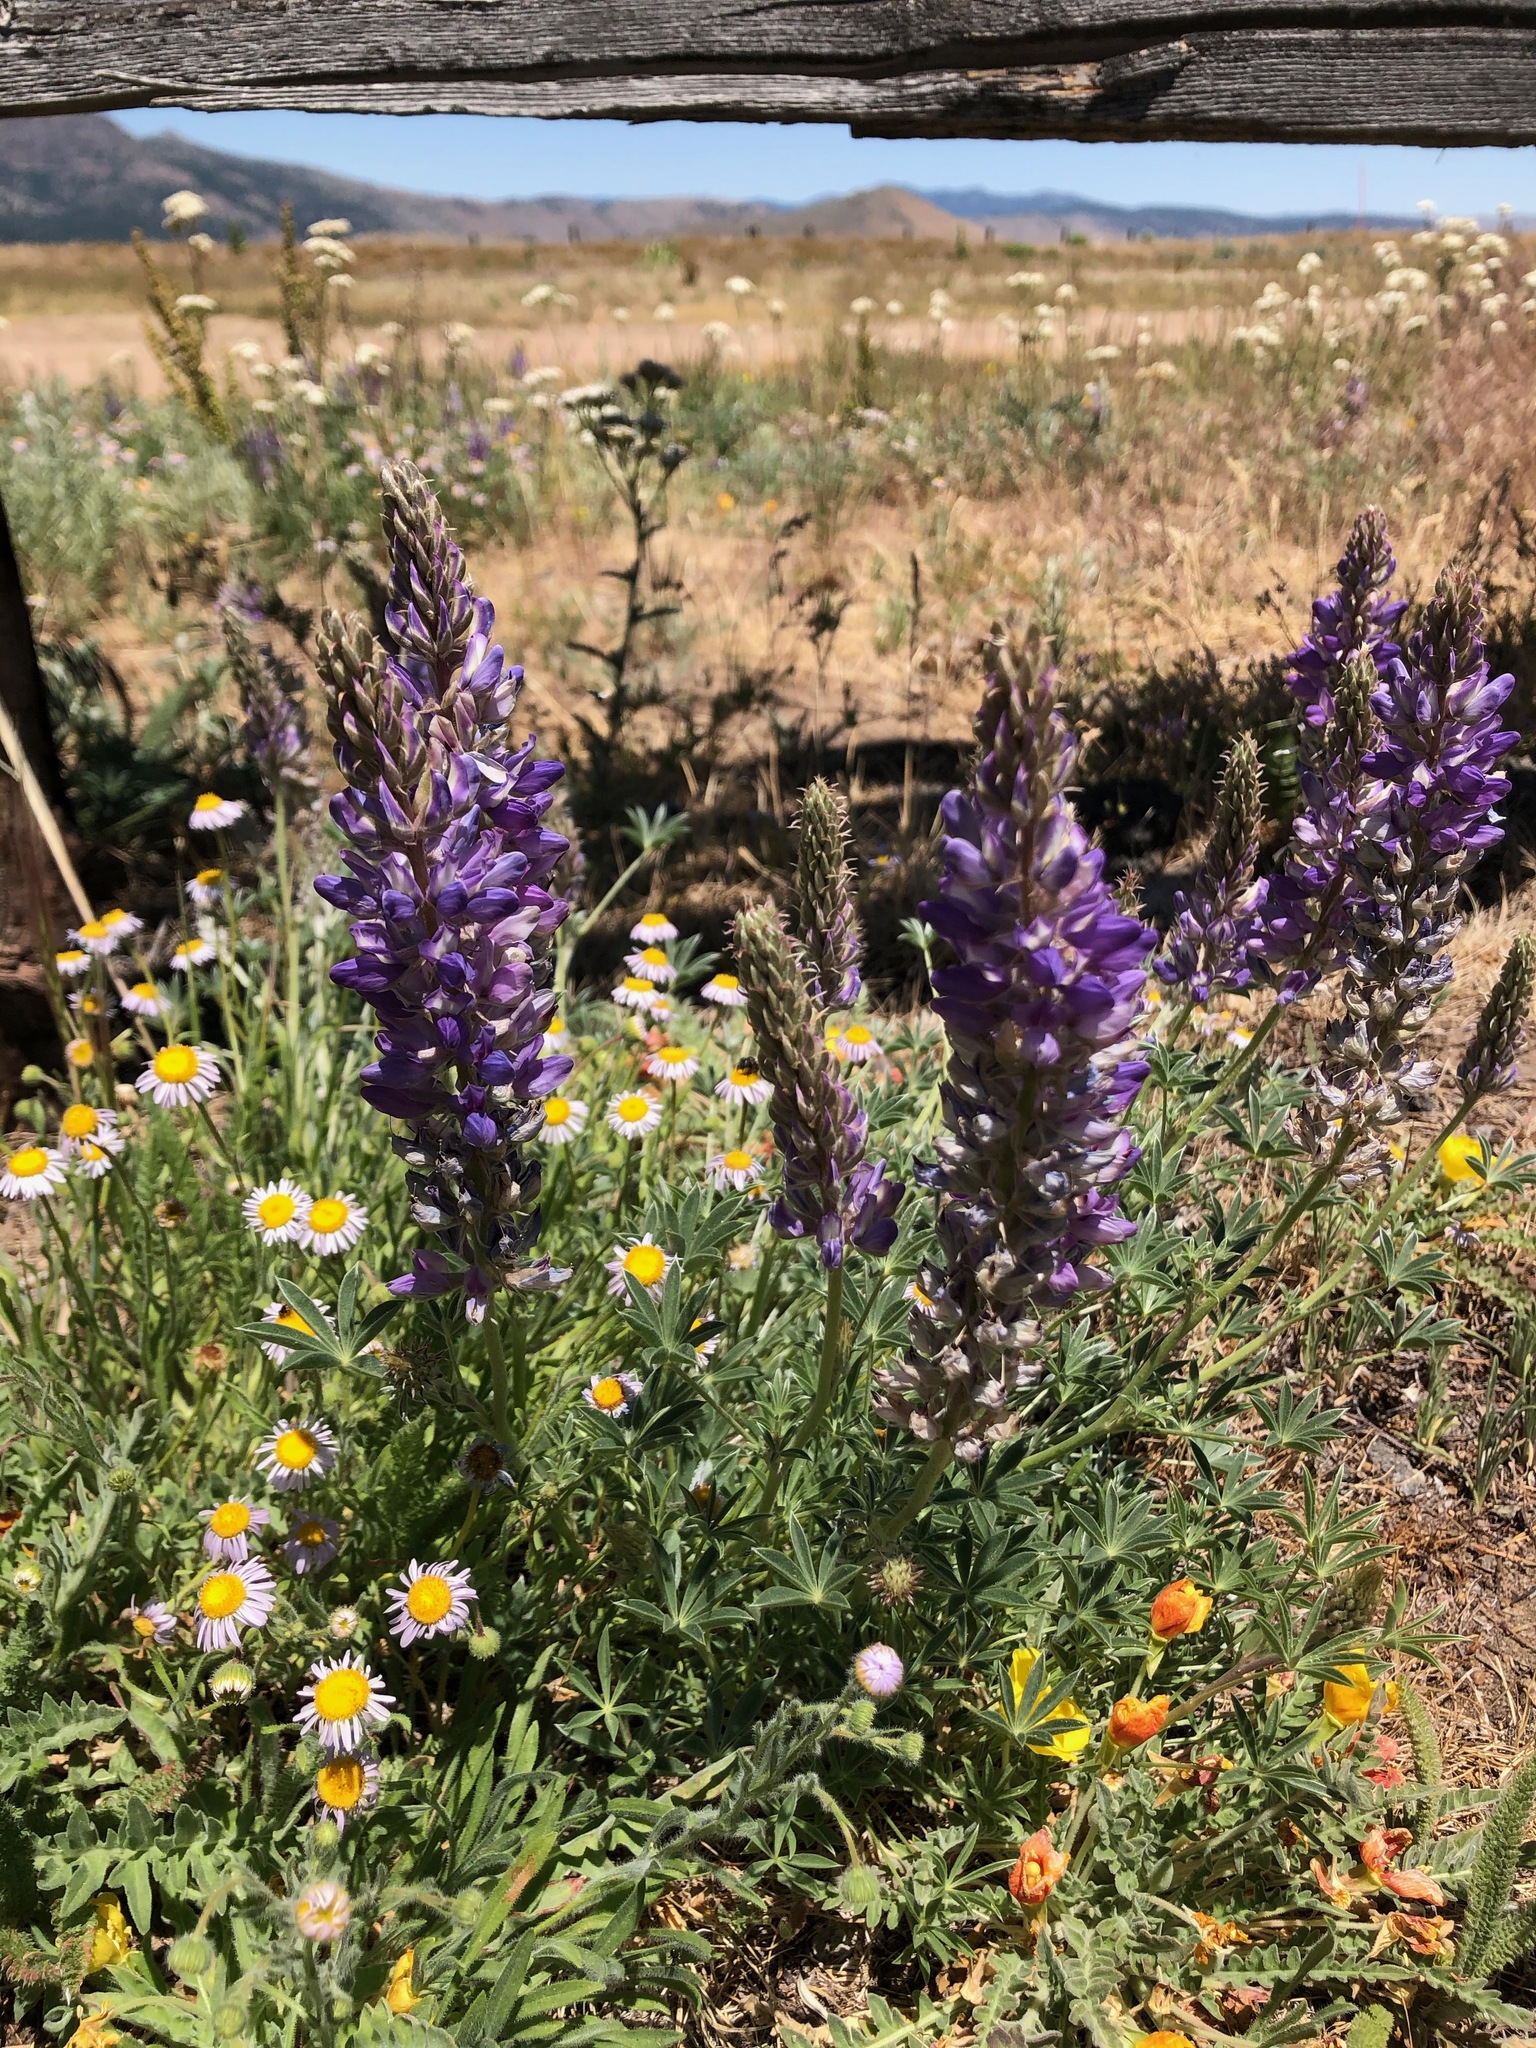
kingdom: Plantae
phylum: Tracheophyta
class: Magnoliopsida
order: Fabales
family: Fabaceae
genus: Lupinus
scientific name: Lupinus lepidus
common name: Prairie lupine
